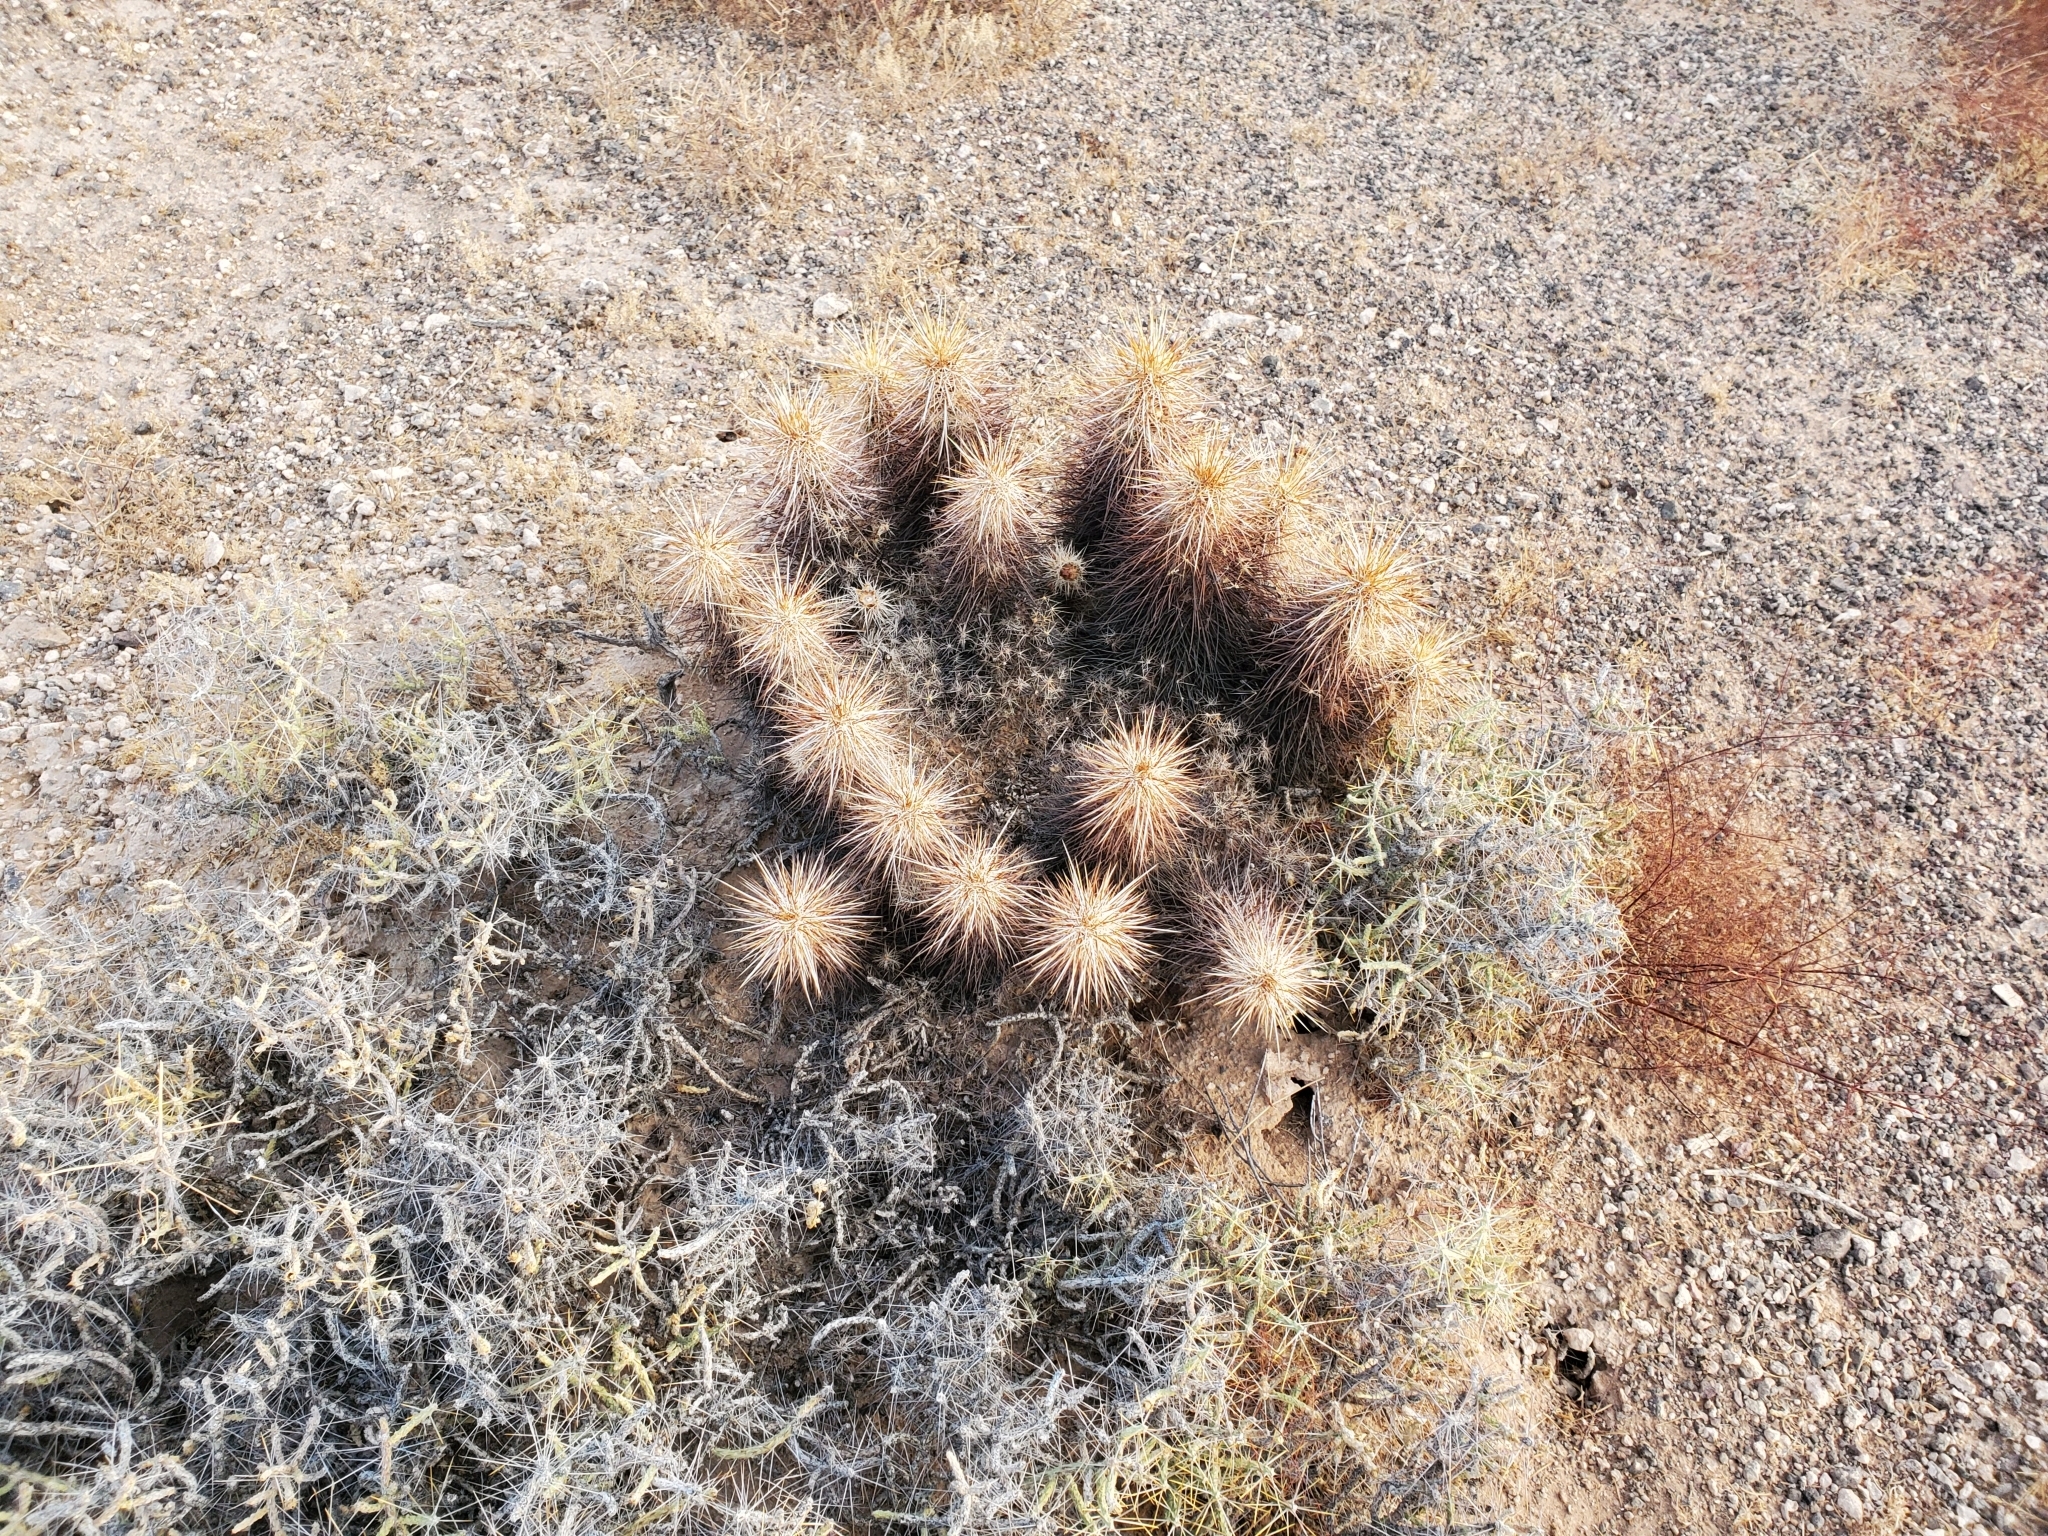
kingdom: Plantae
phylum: Tracheophyta
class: Magnoliopsida
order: Caryophyllales
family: Cactaceae
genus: Echinocereus
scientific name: Echinocereus engelmannii
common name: Engelmann's hedgehog cactus
